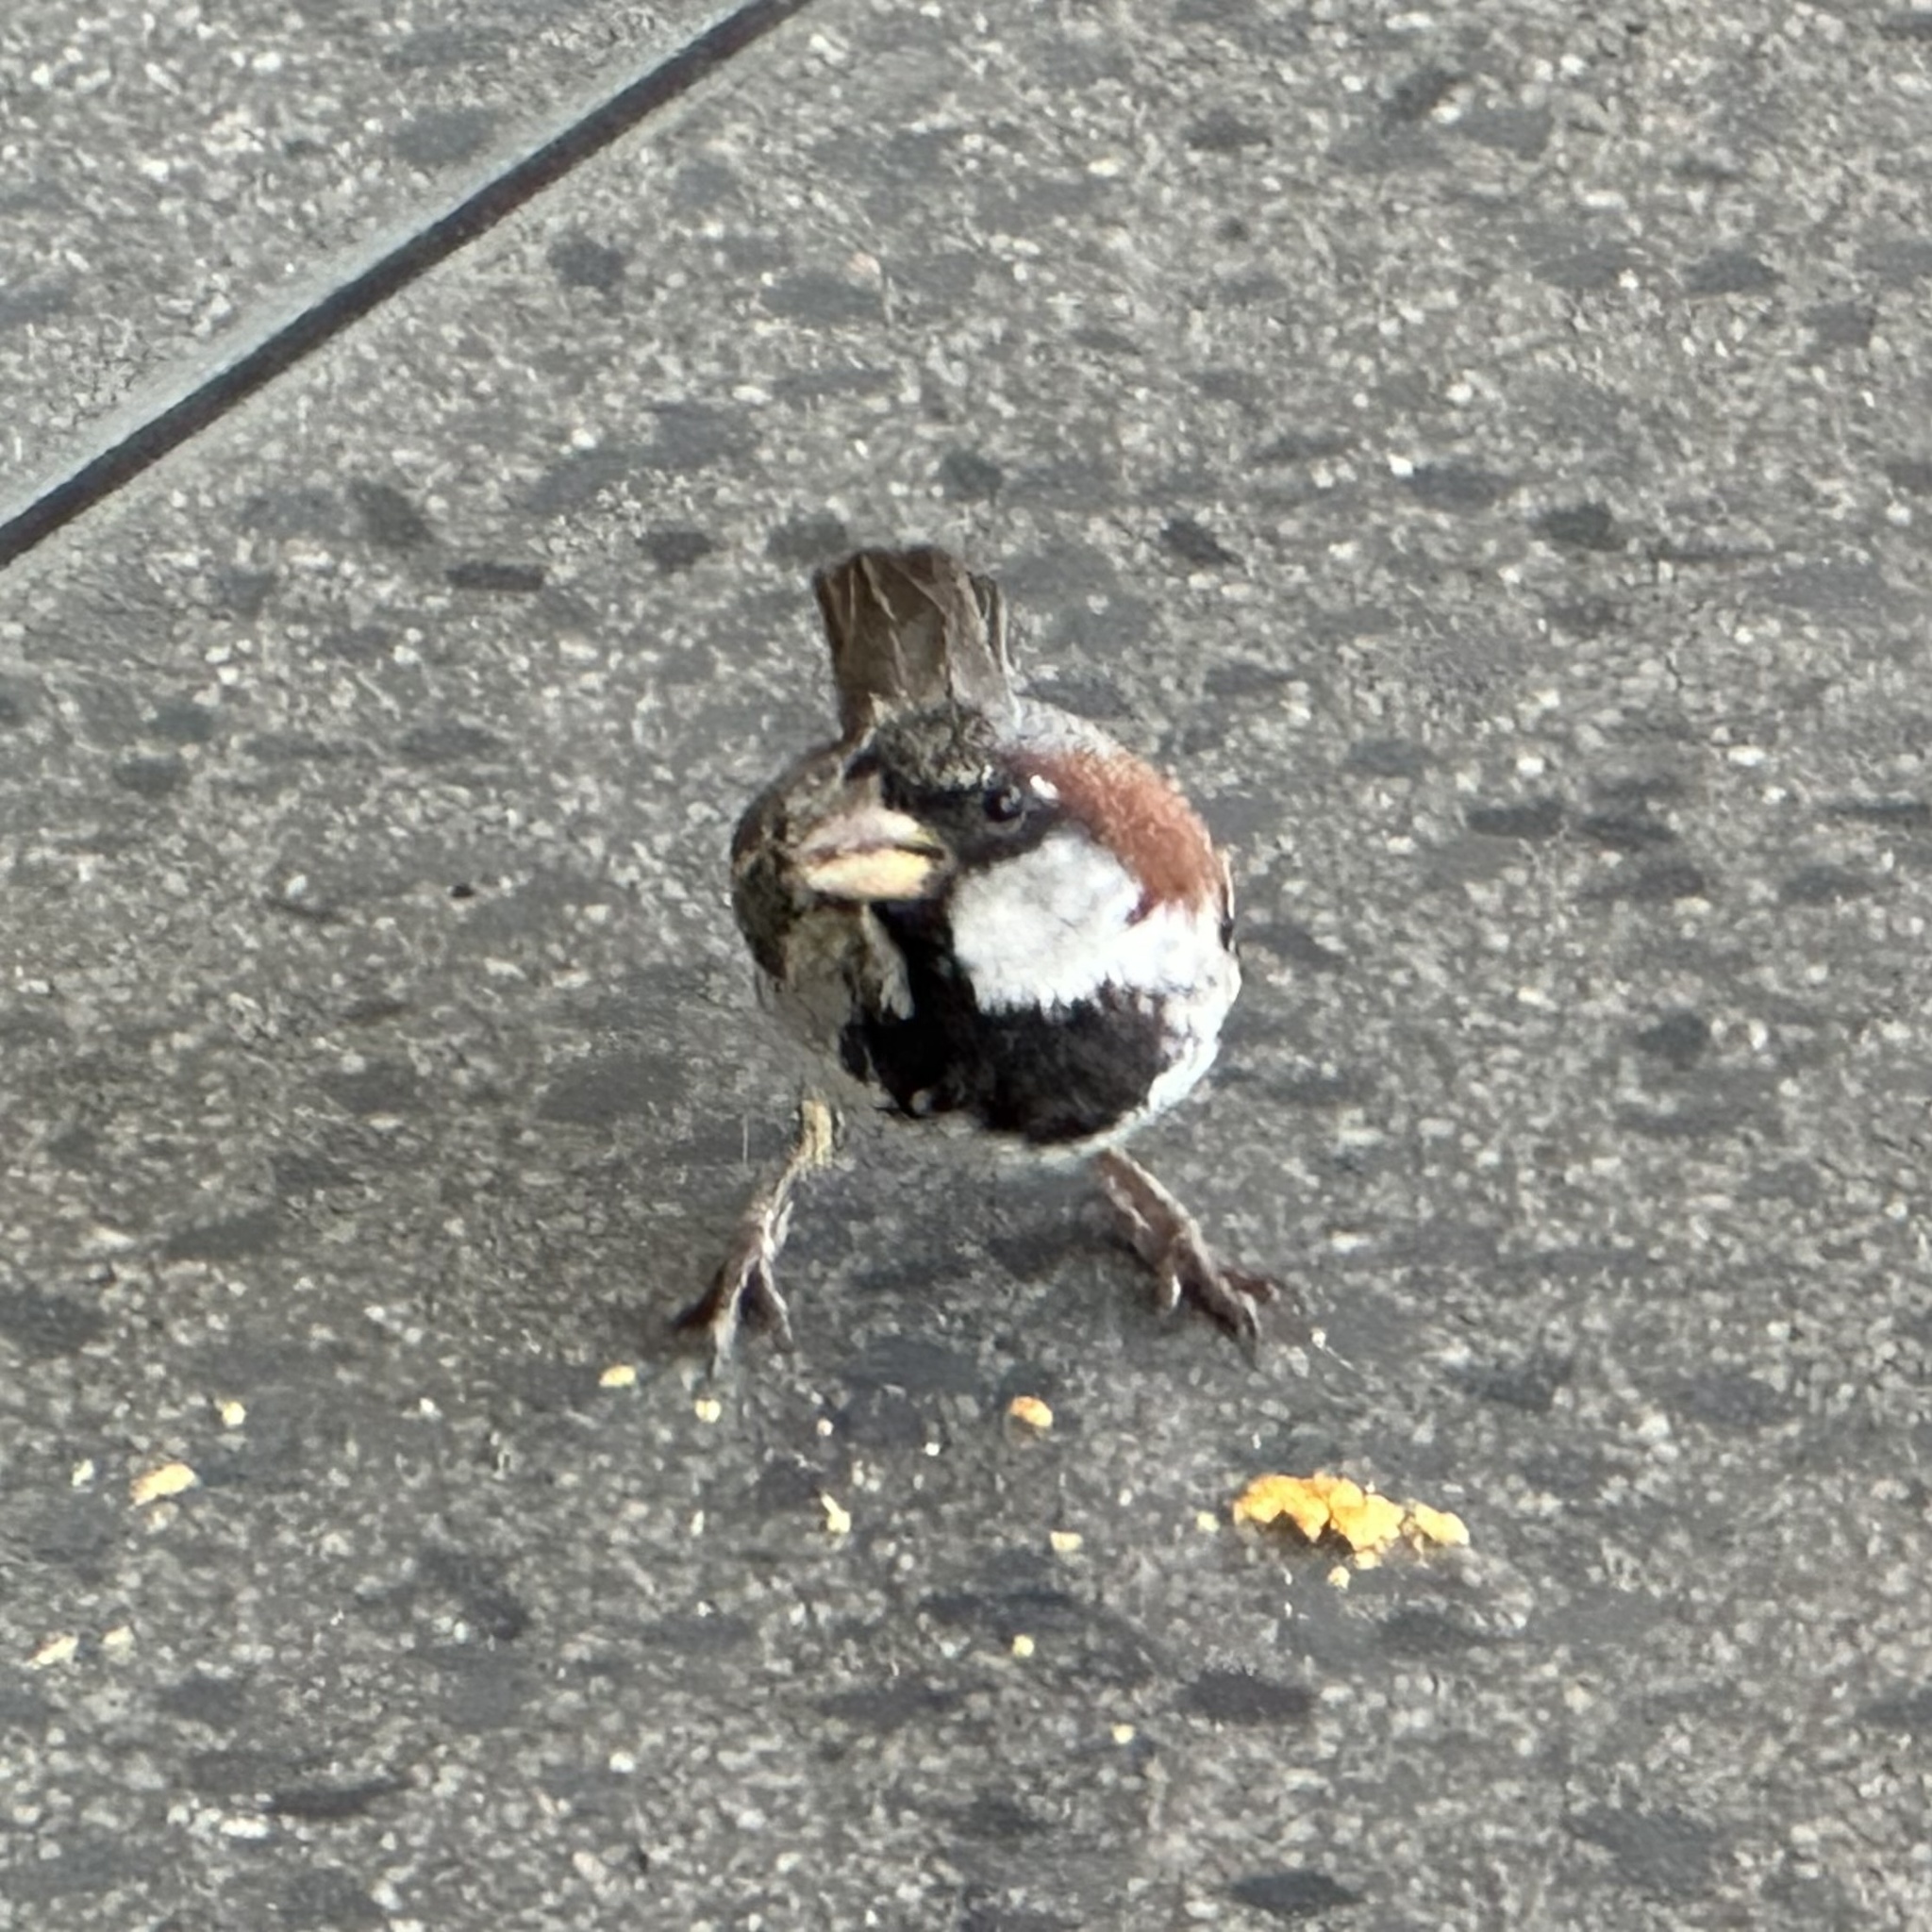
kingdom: Animalia
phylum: Chordata
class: Aves
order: Passeriformes
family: Passeridae
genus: Passer
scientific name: Passer domesticus
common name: House sparrow
